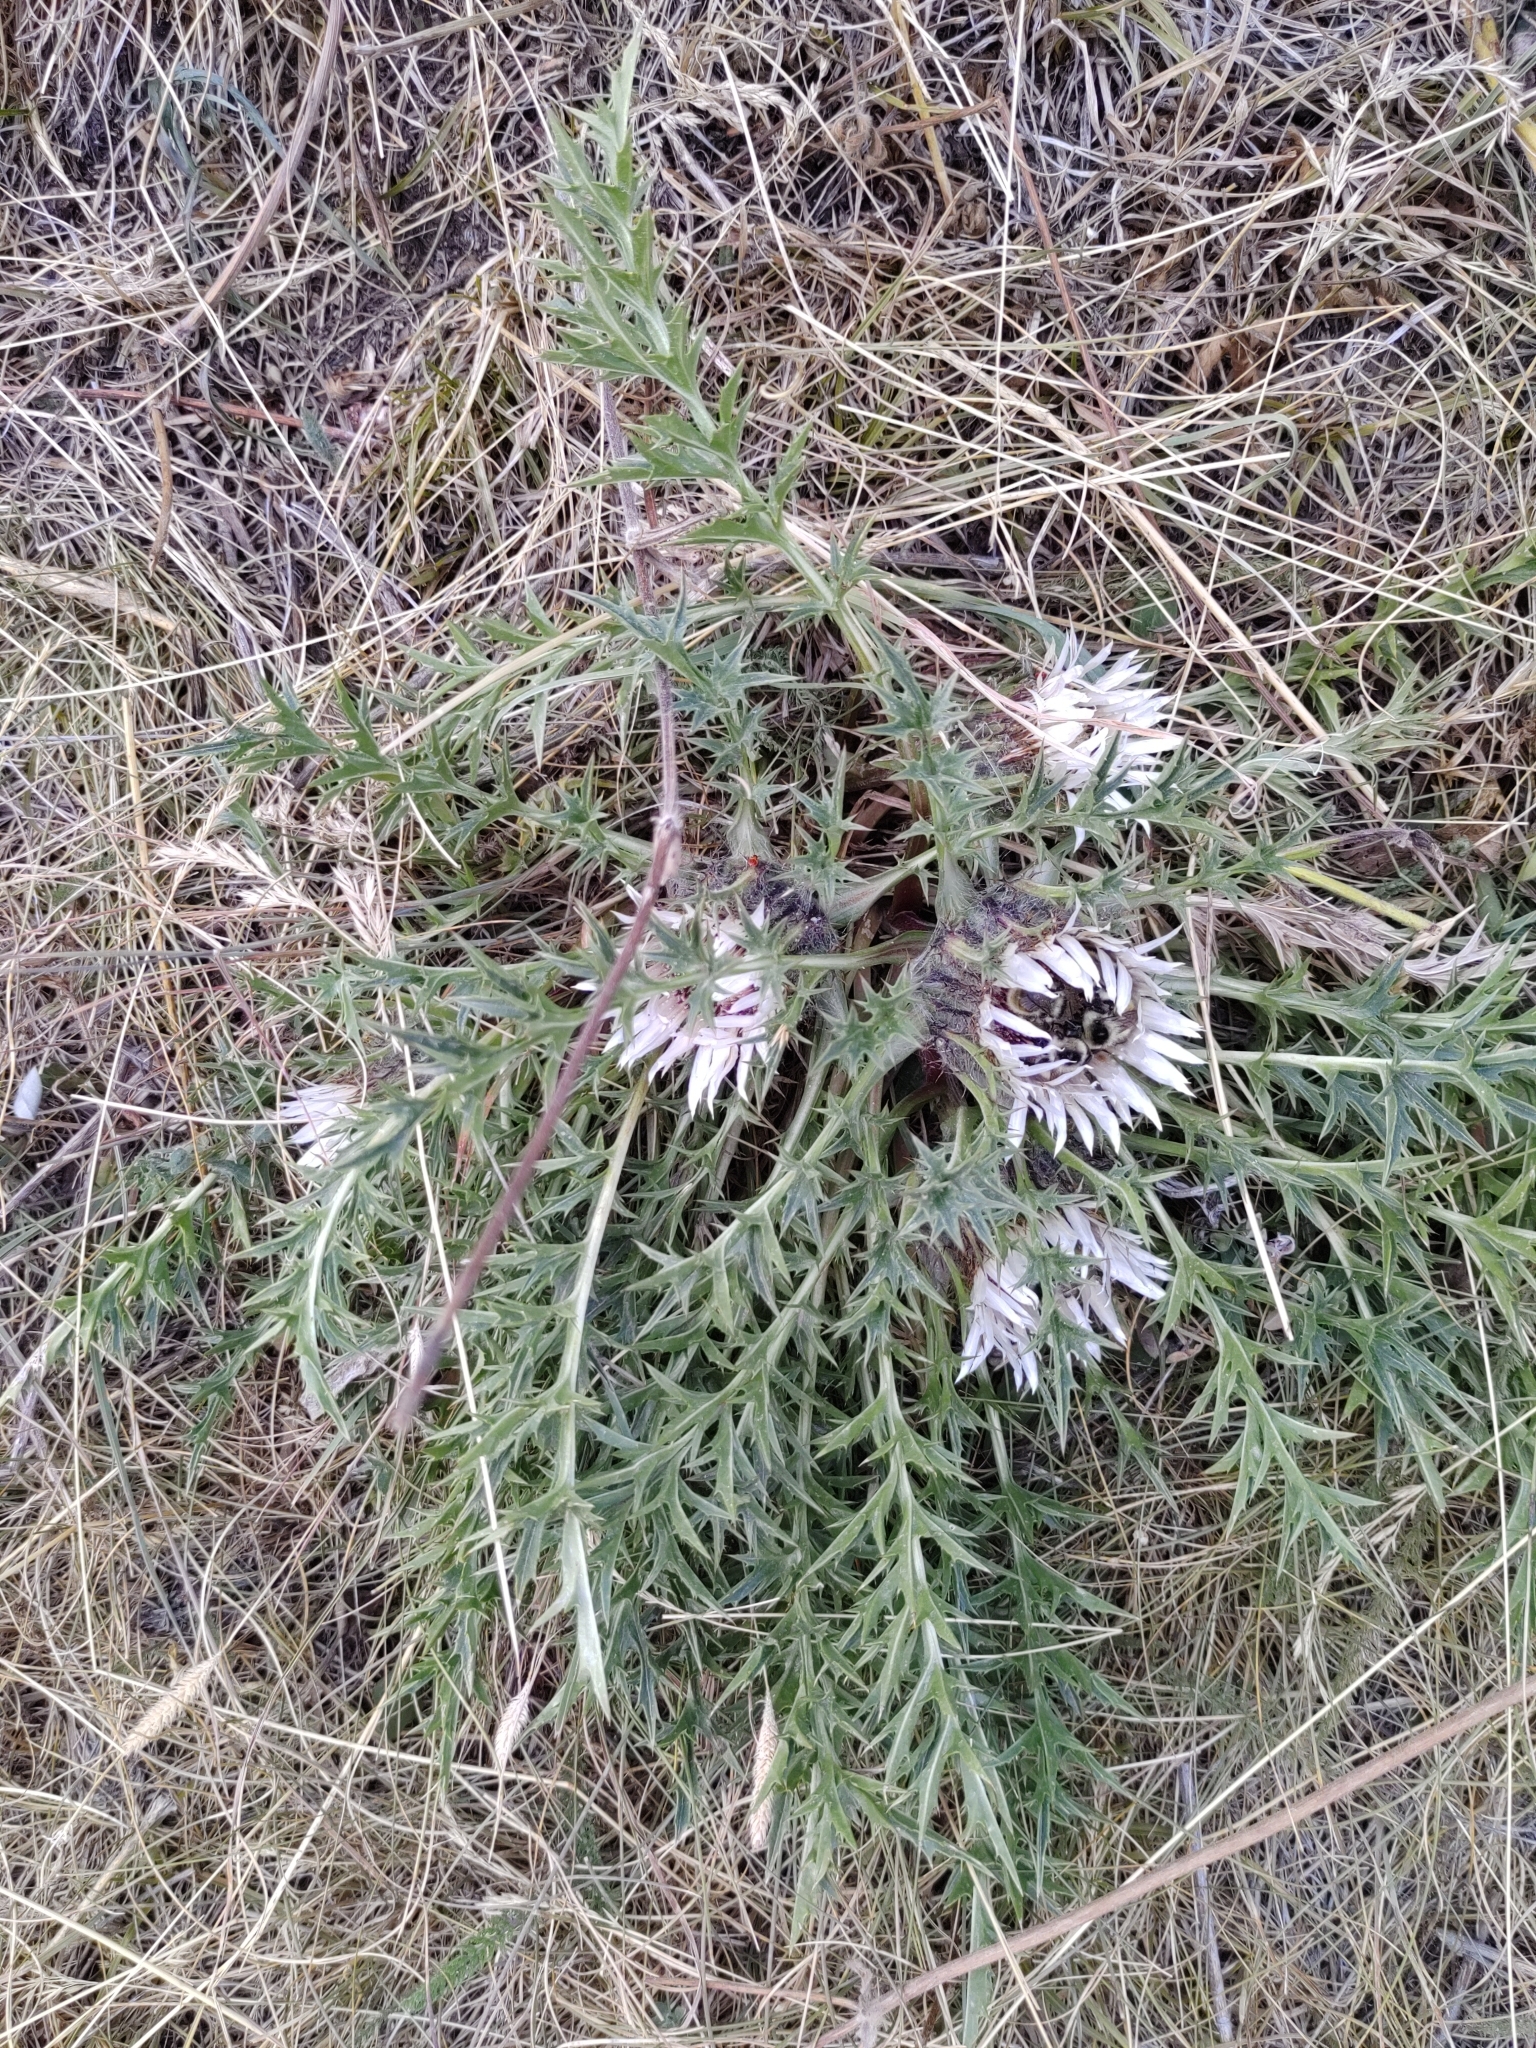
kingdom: Plantae
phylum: Tracheophyta
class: Magnoliopsida
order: Asterales
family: Asteraceae
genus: Carlina
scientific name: Carlina acaulis
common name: Stemless carline thistle
